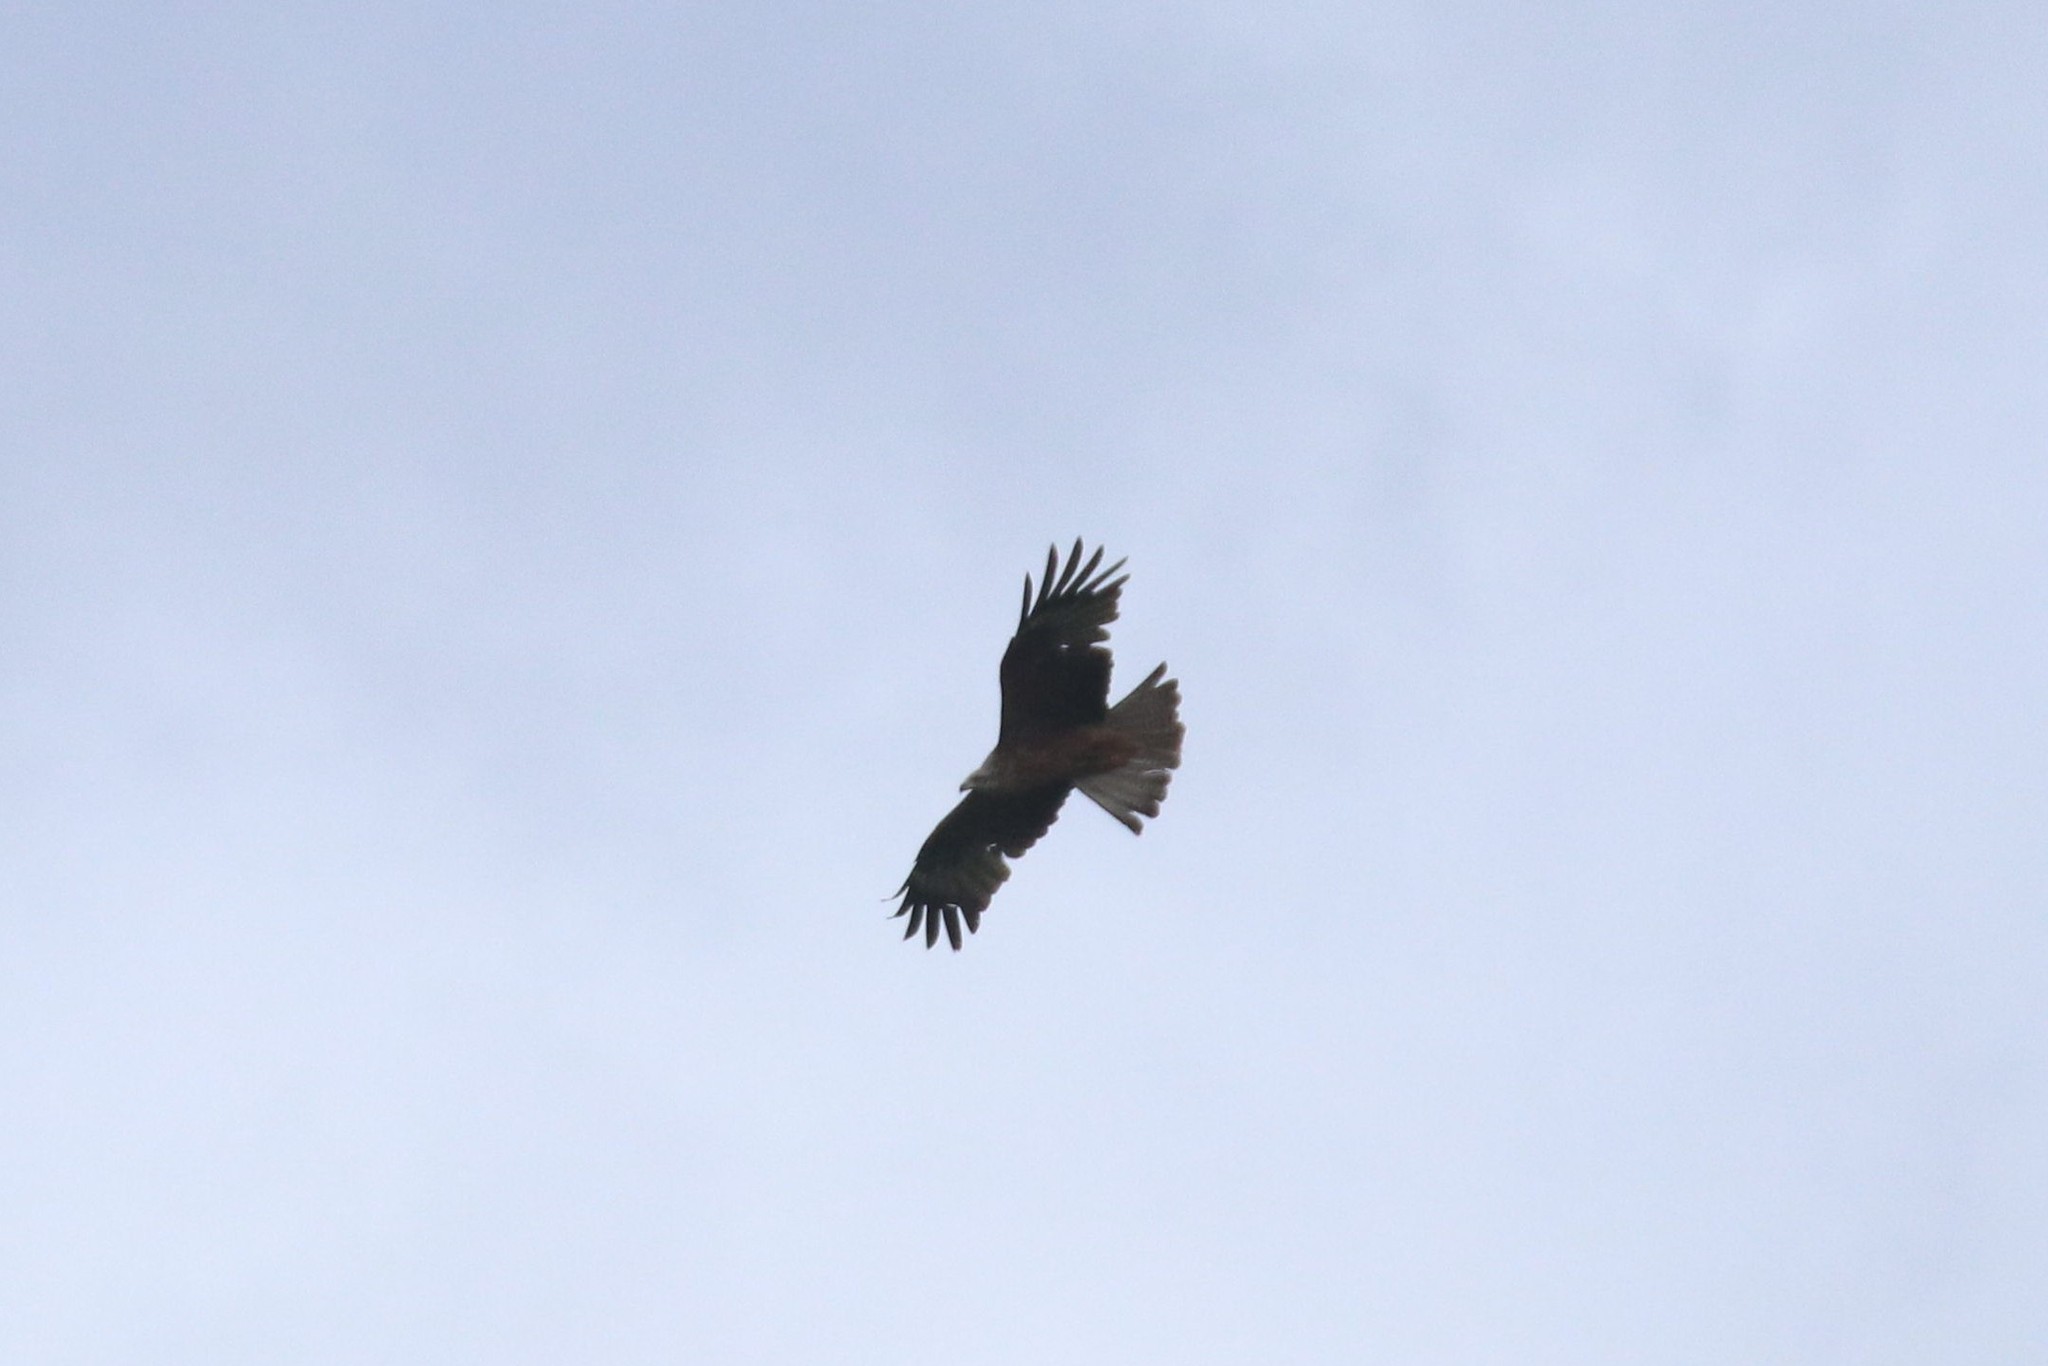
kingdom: Animalia
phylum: Chordata
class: Aves
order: Accipitriformes
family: Accipitridae
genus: Milvus
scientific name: Milvus migrans
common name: Black kite
